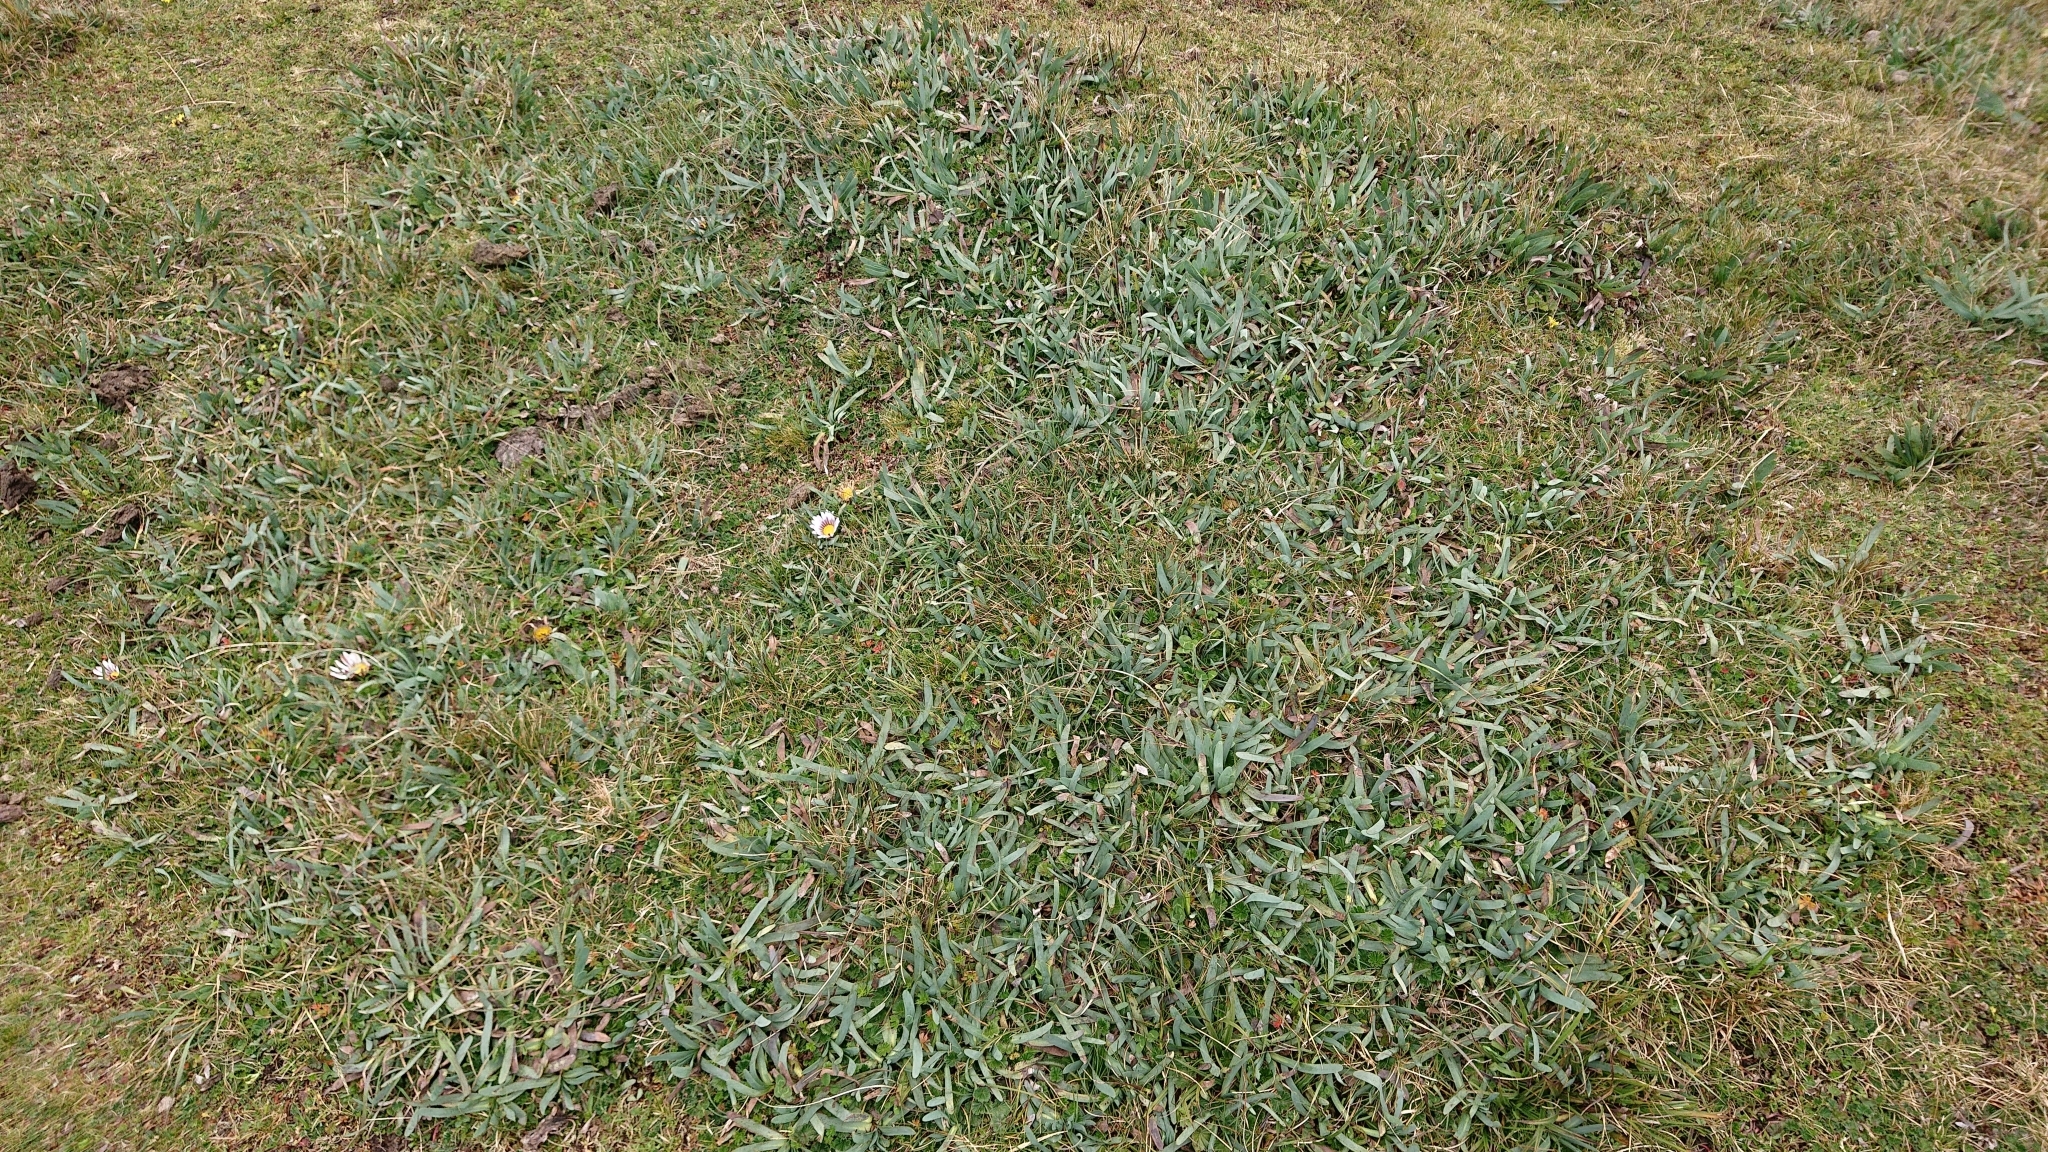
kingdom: Plantae
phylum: Tracheophyta
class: Magnoliopsida
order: Asterales
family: Asteraceae
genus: Rockhausenia
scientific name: Rockhausenia nubigena
